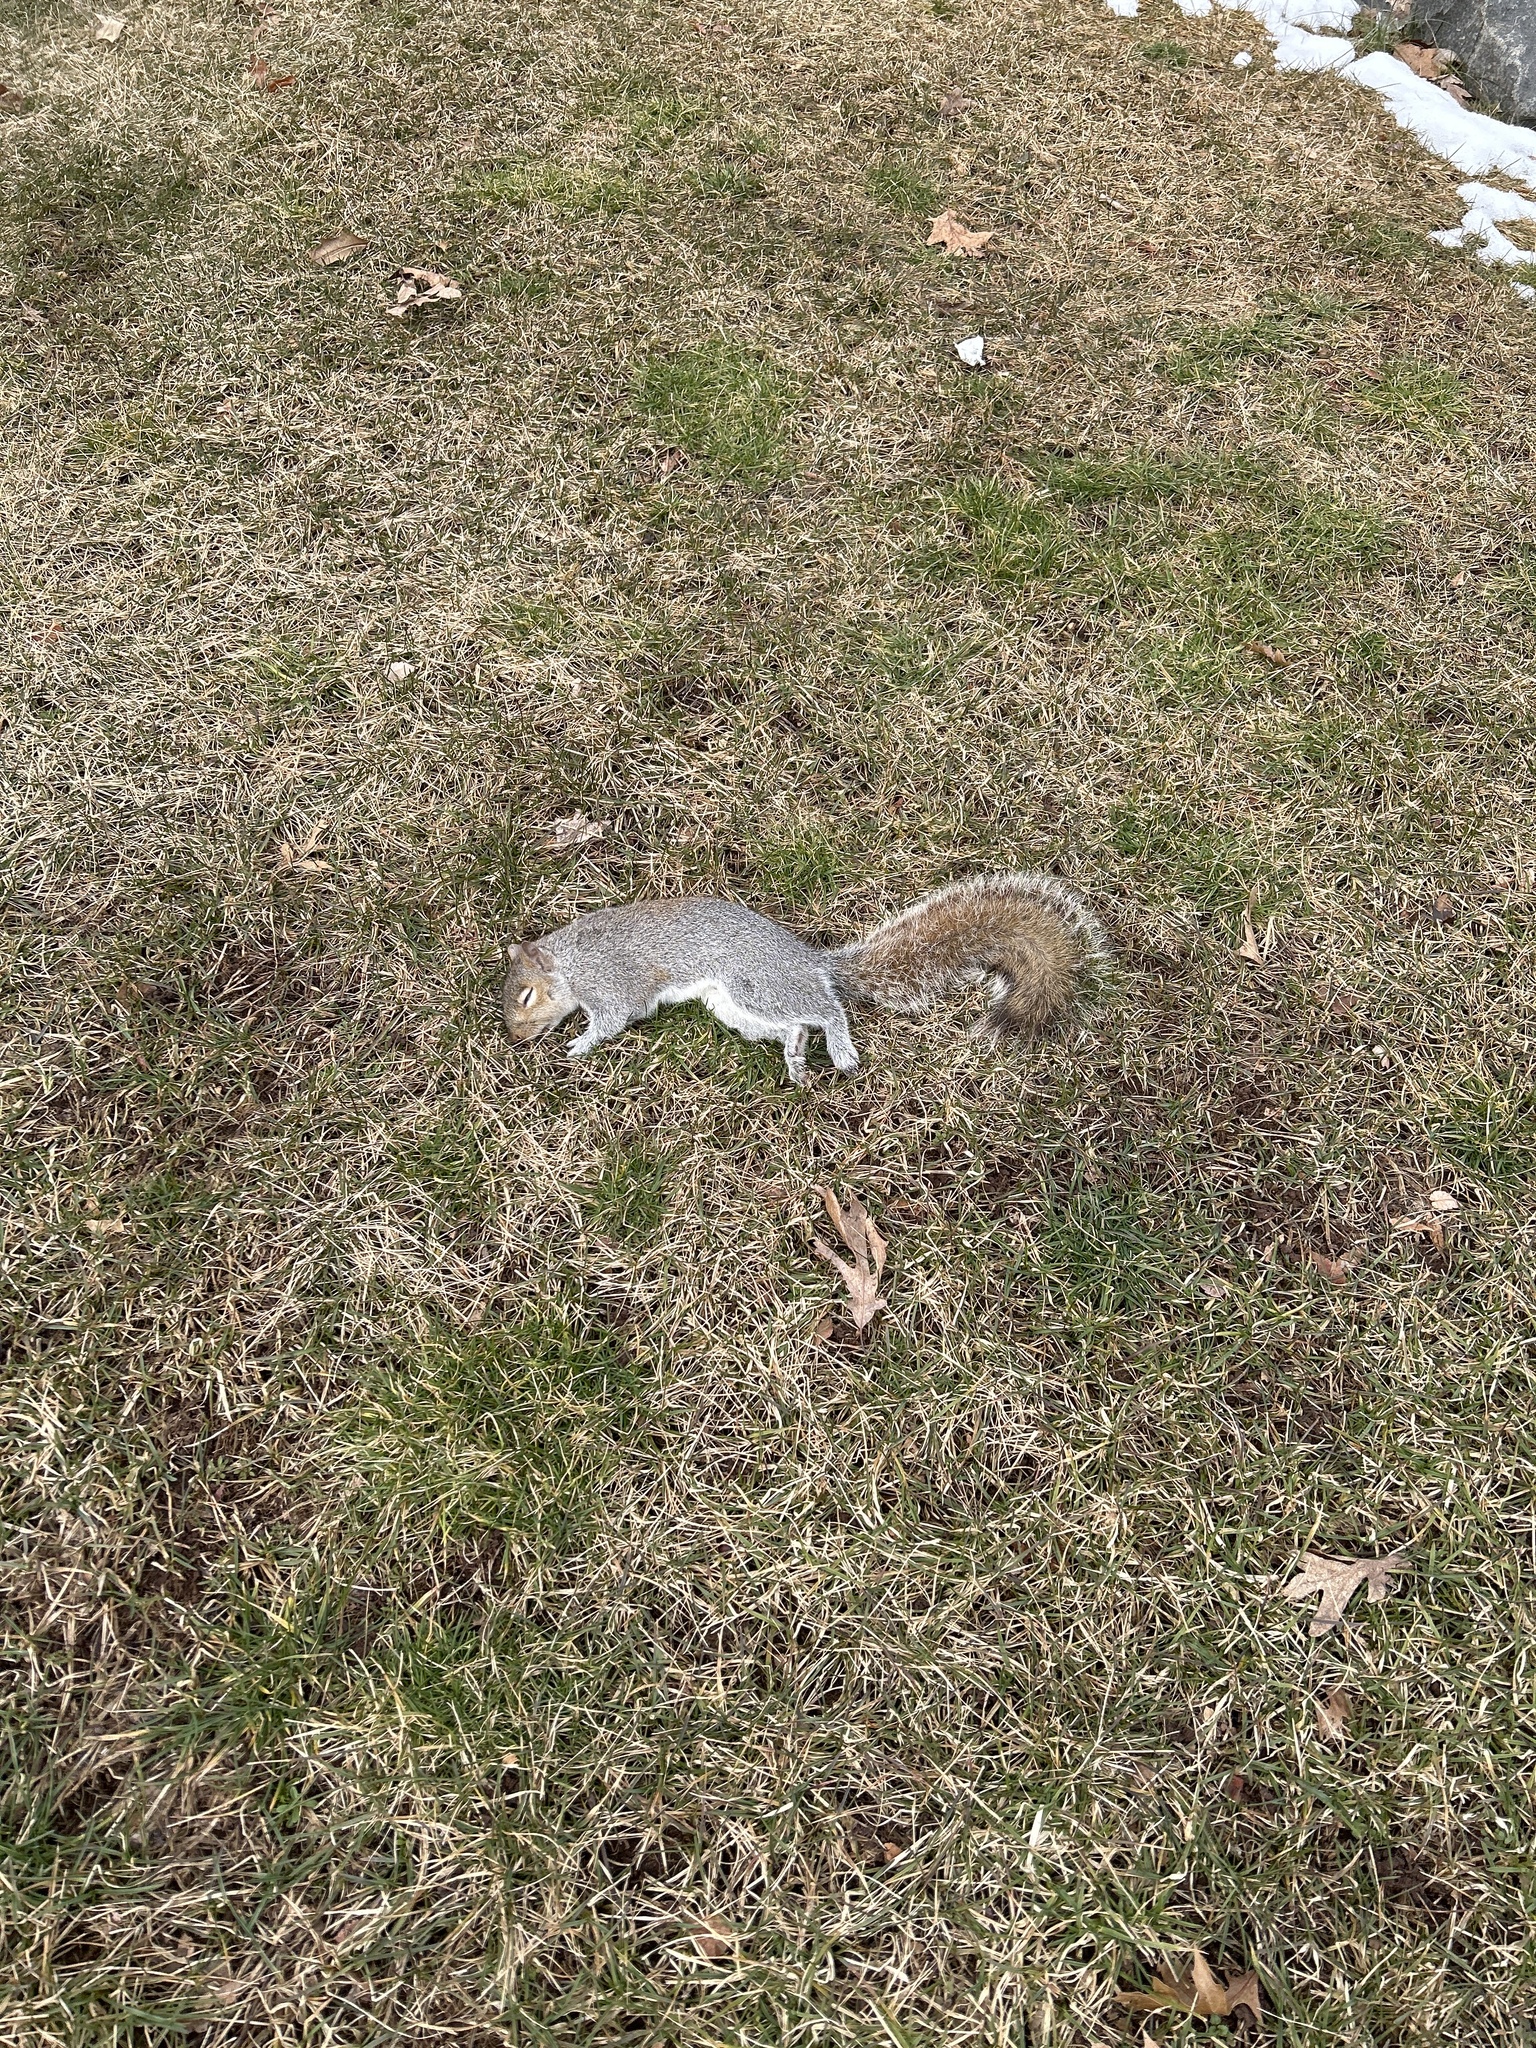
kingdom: Animalia
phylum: Chordata
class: Mammalia
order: Rodentia
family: Sciuridae
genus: Sciurus
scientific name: Sciurus carolinensis
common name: Eastern gray squirrel
